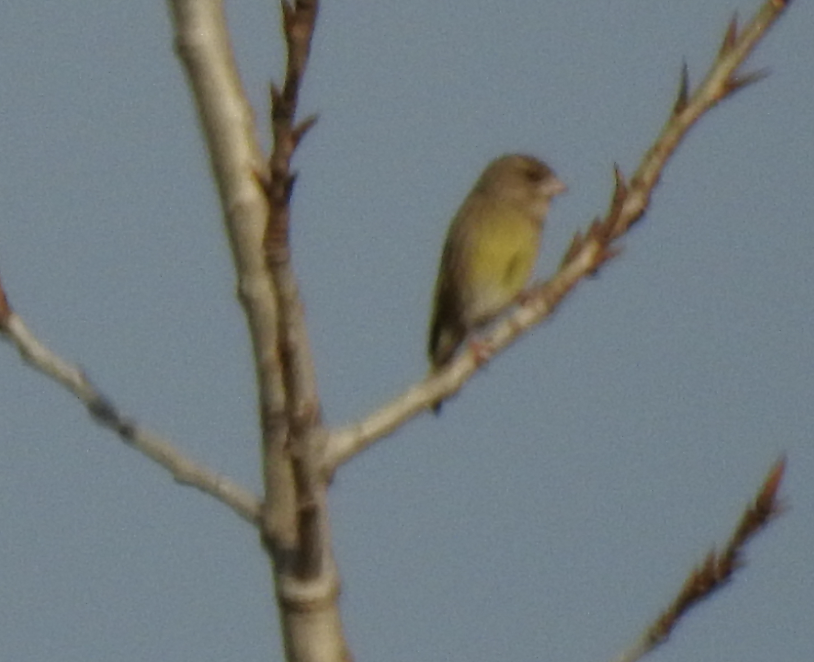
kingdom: Plantae
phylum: Tracheophyta
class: Liliopsida
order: Poales
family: Poaceae
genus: Chloris
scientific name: Chloris chloris
